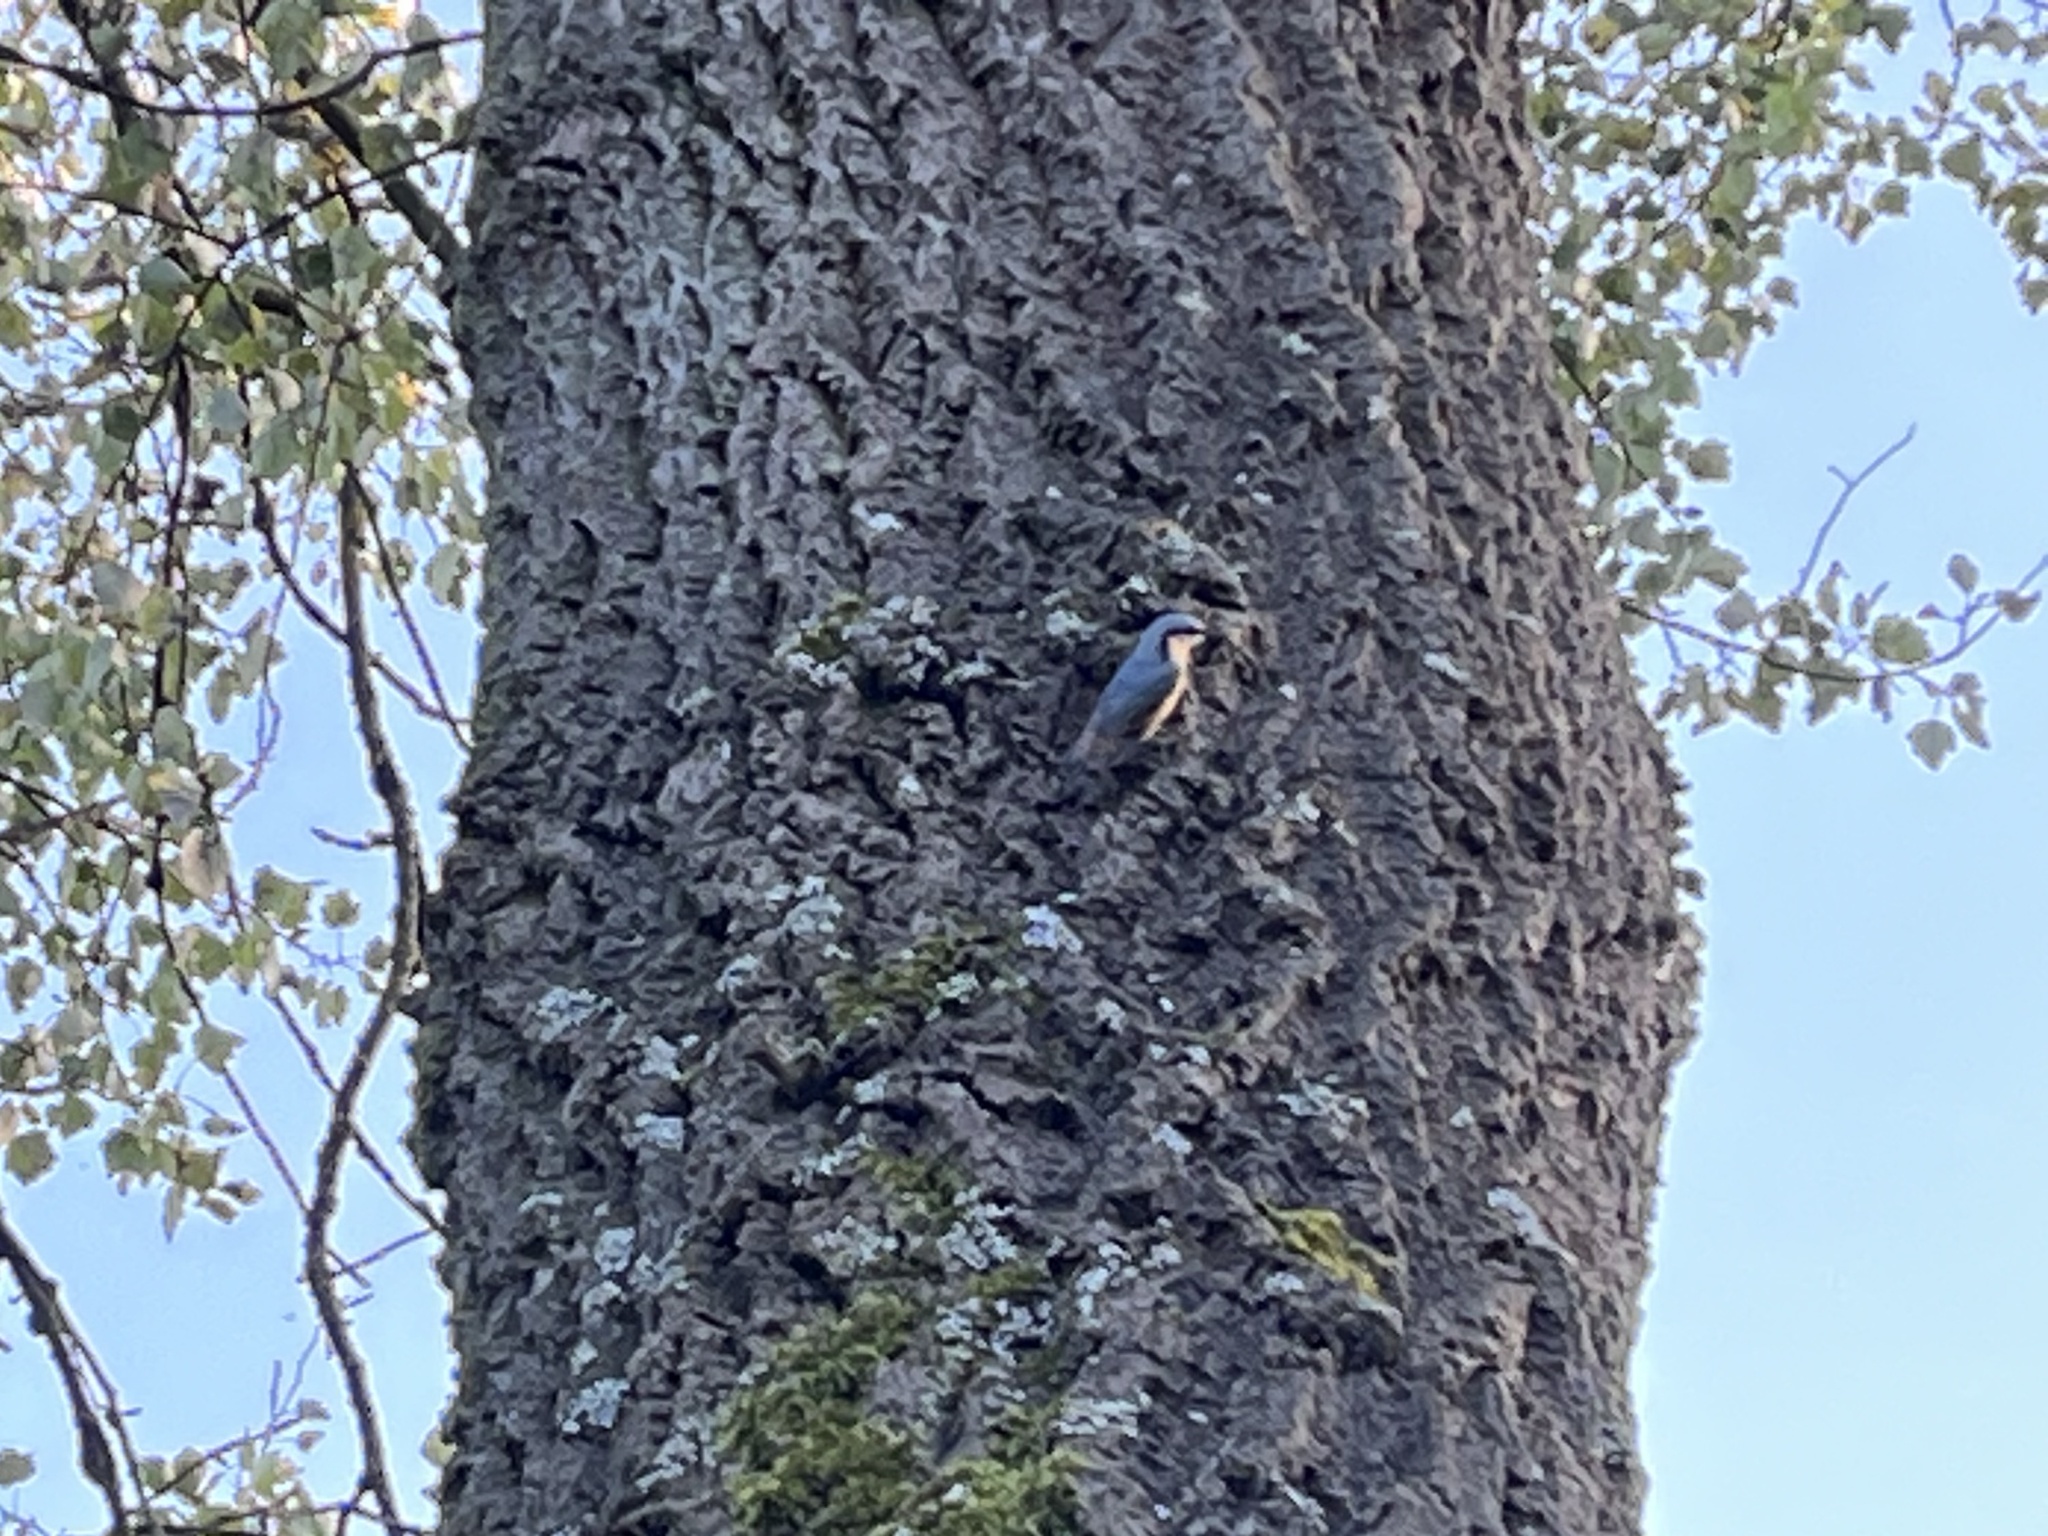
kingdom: Animalia
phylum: Chordata
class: Aves
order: Passeriformes
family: Sittidae
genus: Sitta
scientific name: Sitta europaea
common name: Eurasian nuthatch
